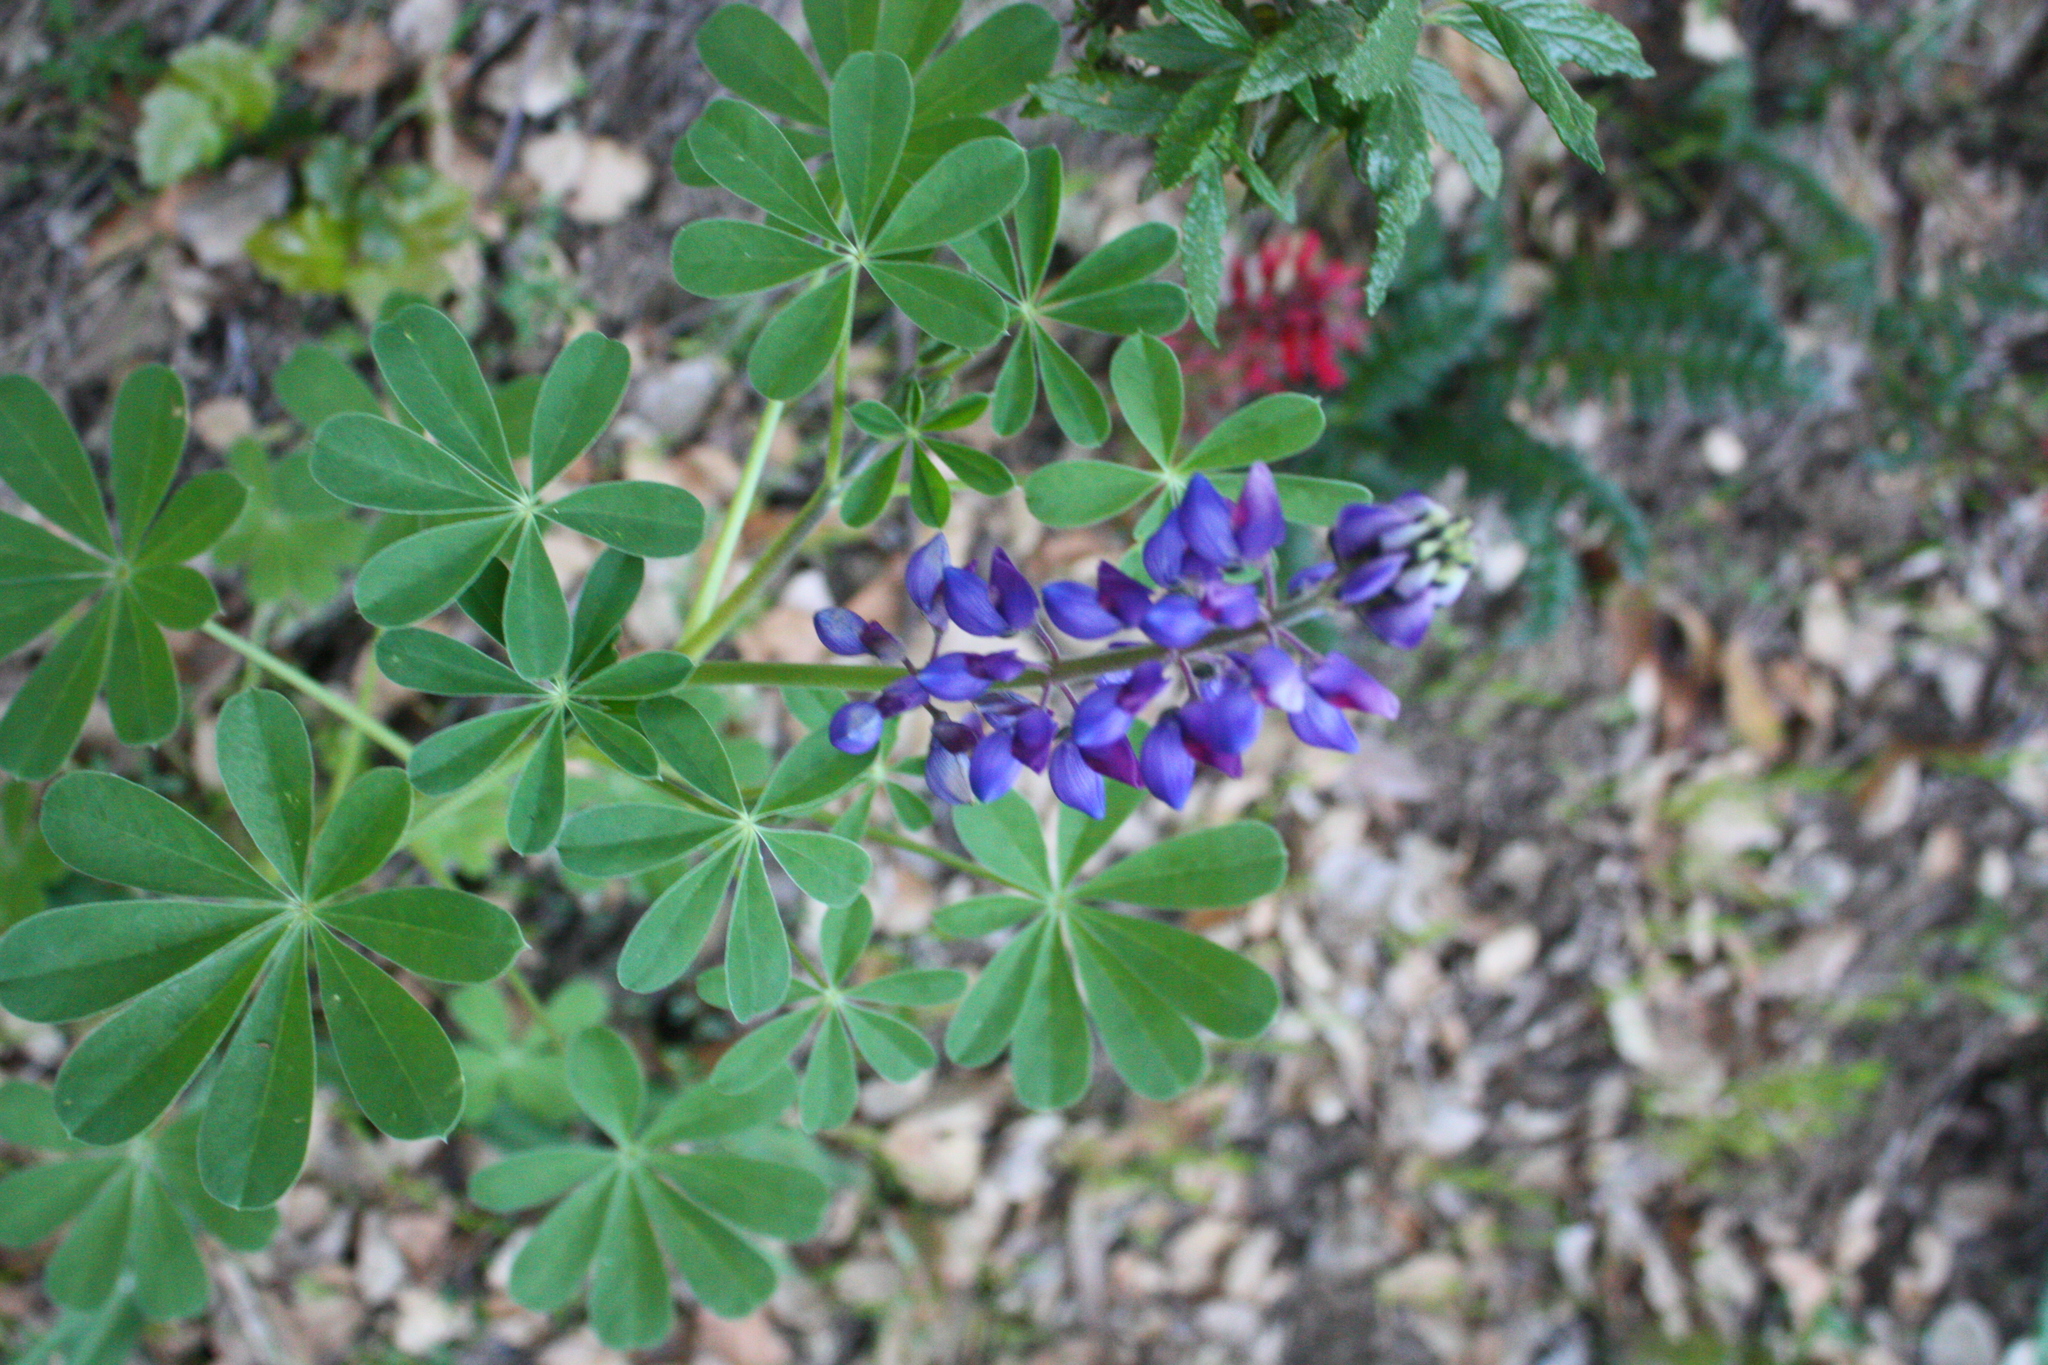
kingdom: Plantae
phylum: Tracheophyta
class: Magnoliopsida
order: Fabales
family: Fabaceae
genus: Lupinus
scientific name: Lupinus succulentus
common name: Arroyo lupine
